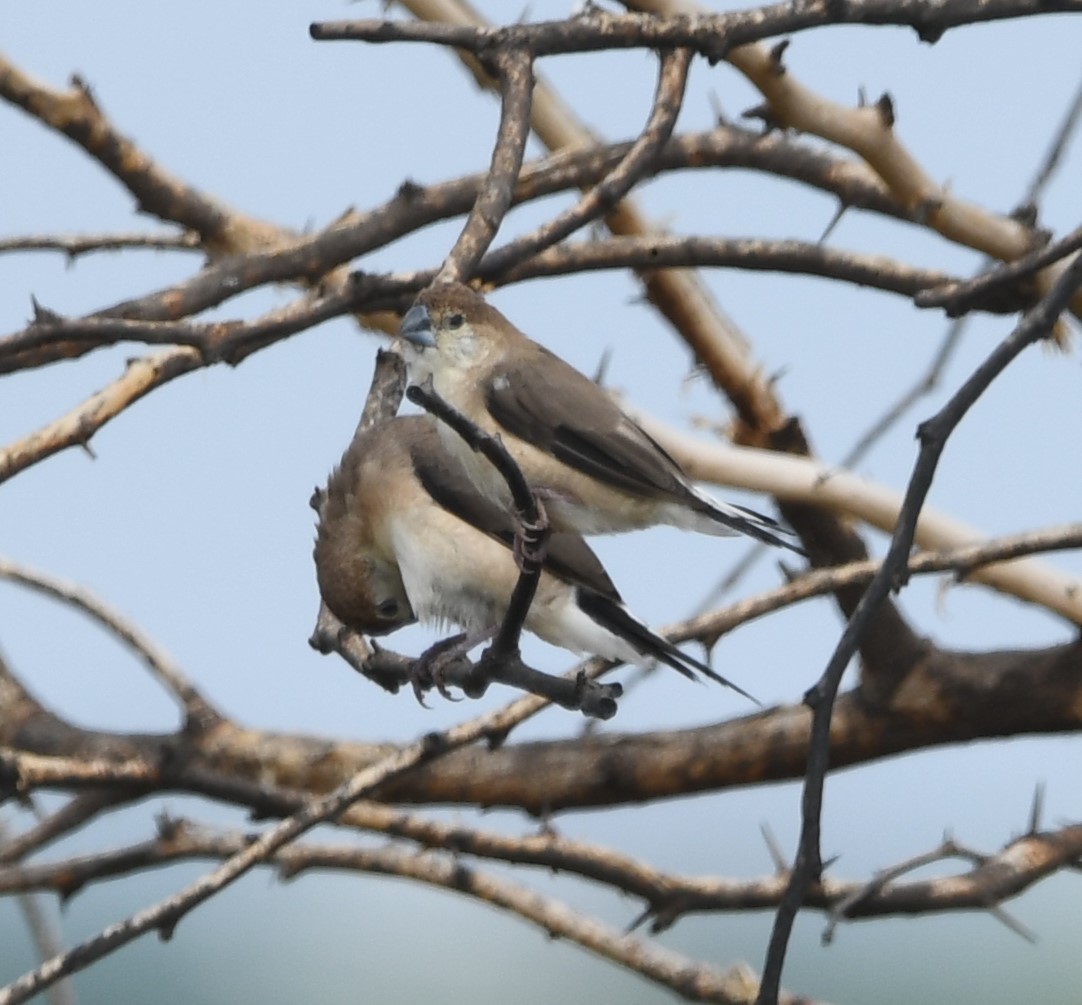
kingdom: Animalia
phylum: Chordata
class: Aves
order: Passeriformes
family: Estrildidae
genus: Euodice
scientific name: Euodice malabarica
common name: Indian silverbill
